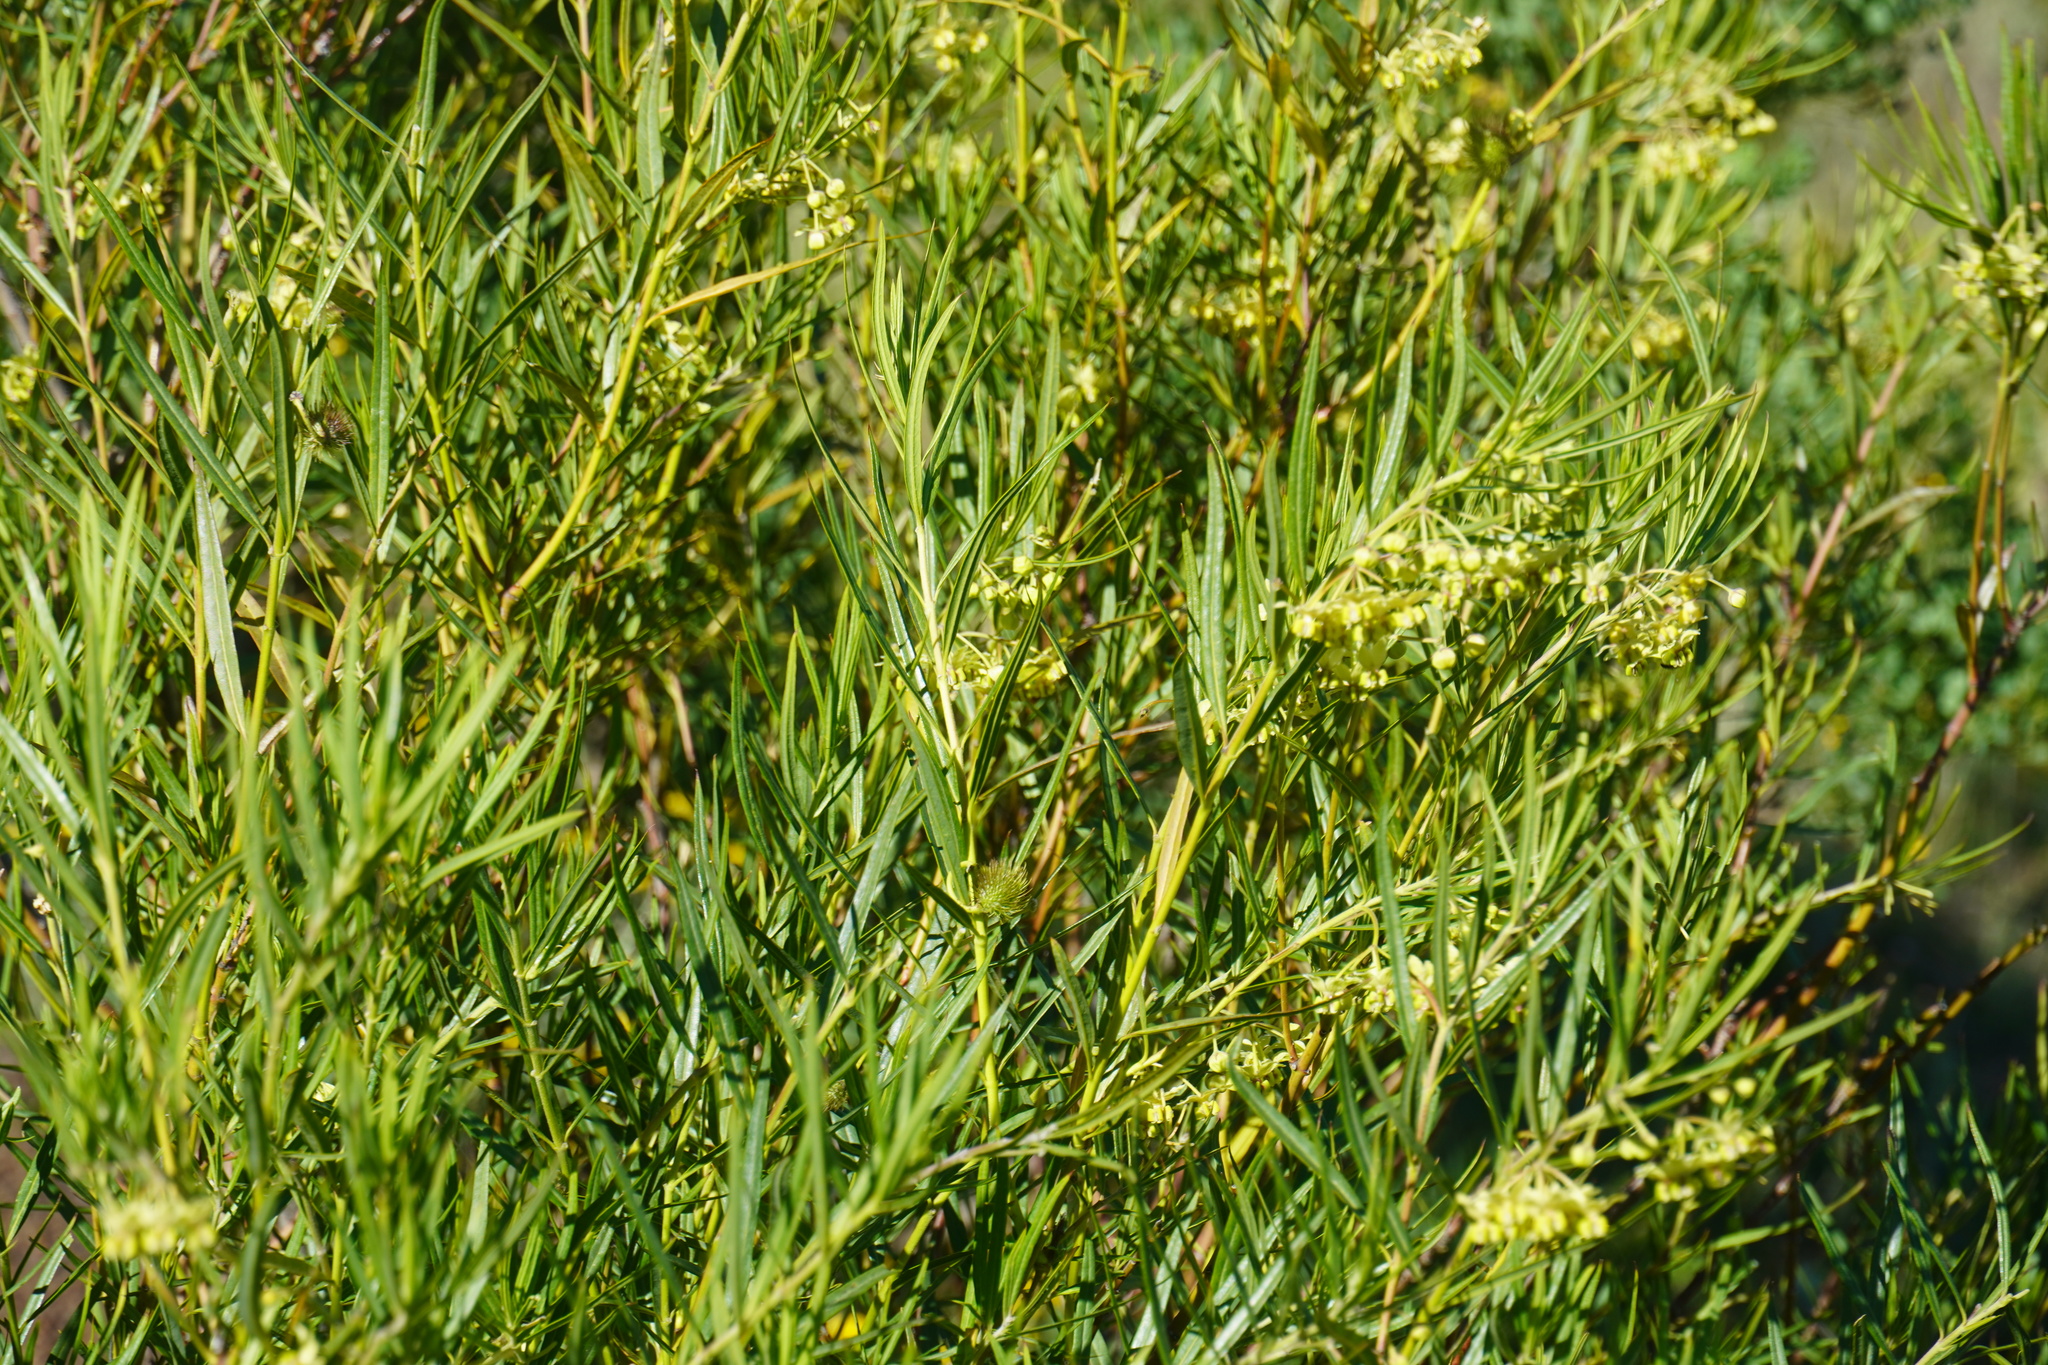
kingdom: Plantae
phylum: Tracheophyta
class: Magnoliopsida
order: Gentianales
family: Apocynaceae
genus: Gomphocarpus
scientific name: Gomphocarpus fruticosus
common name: Milkweed
